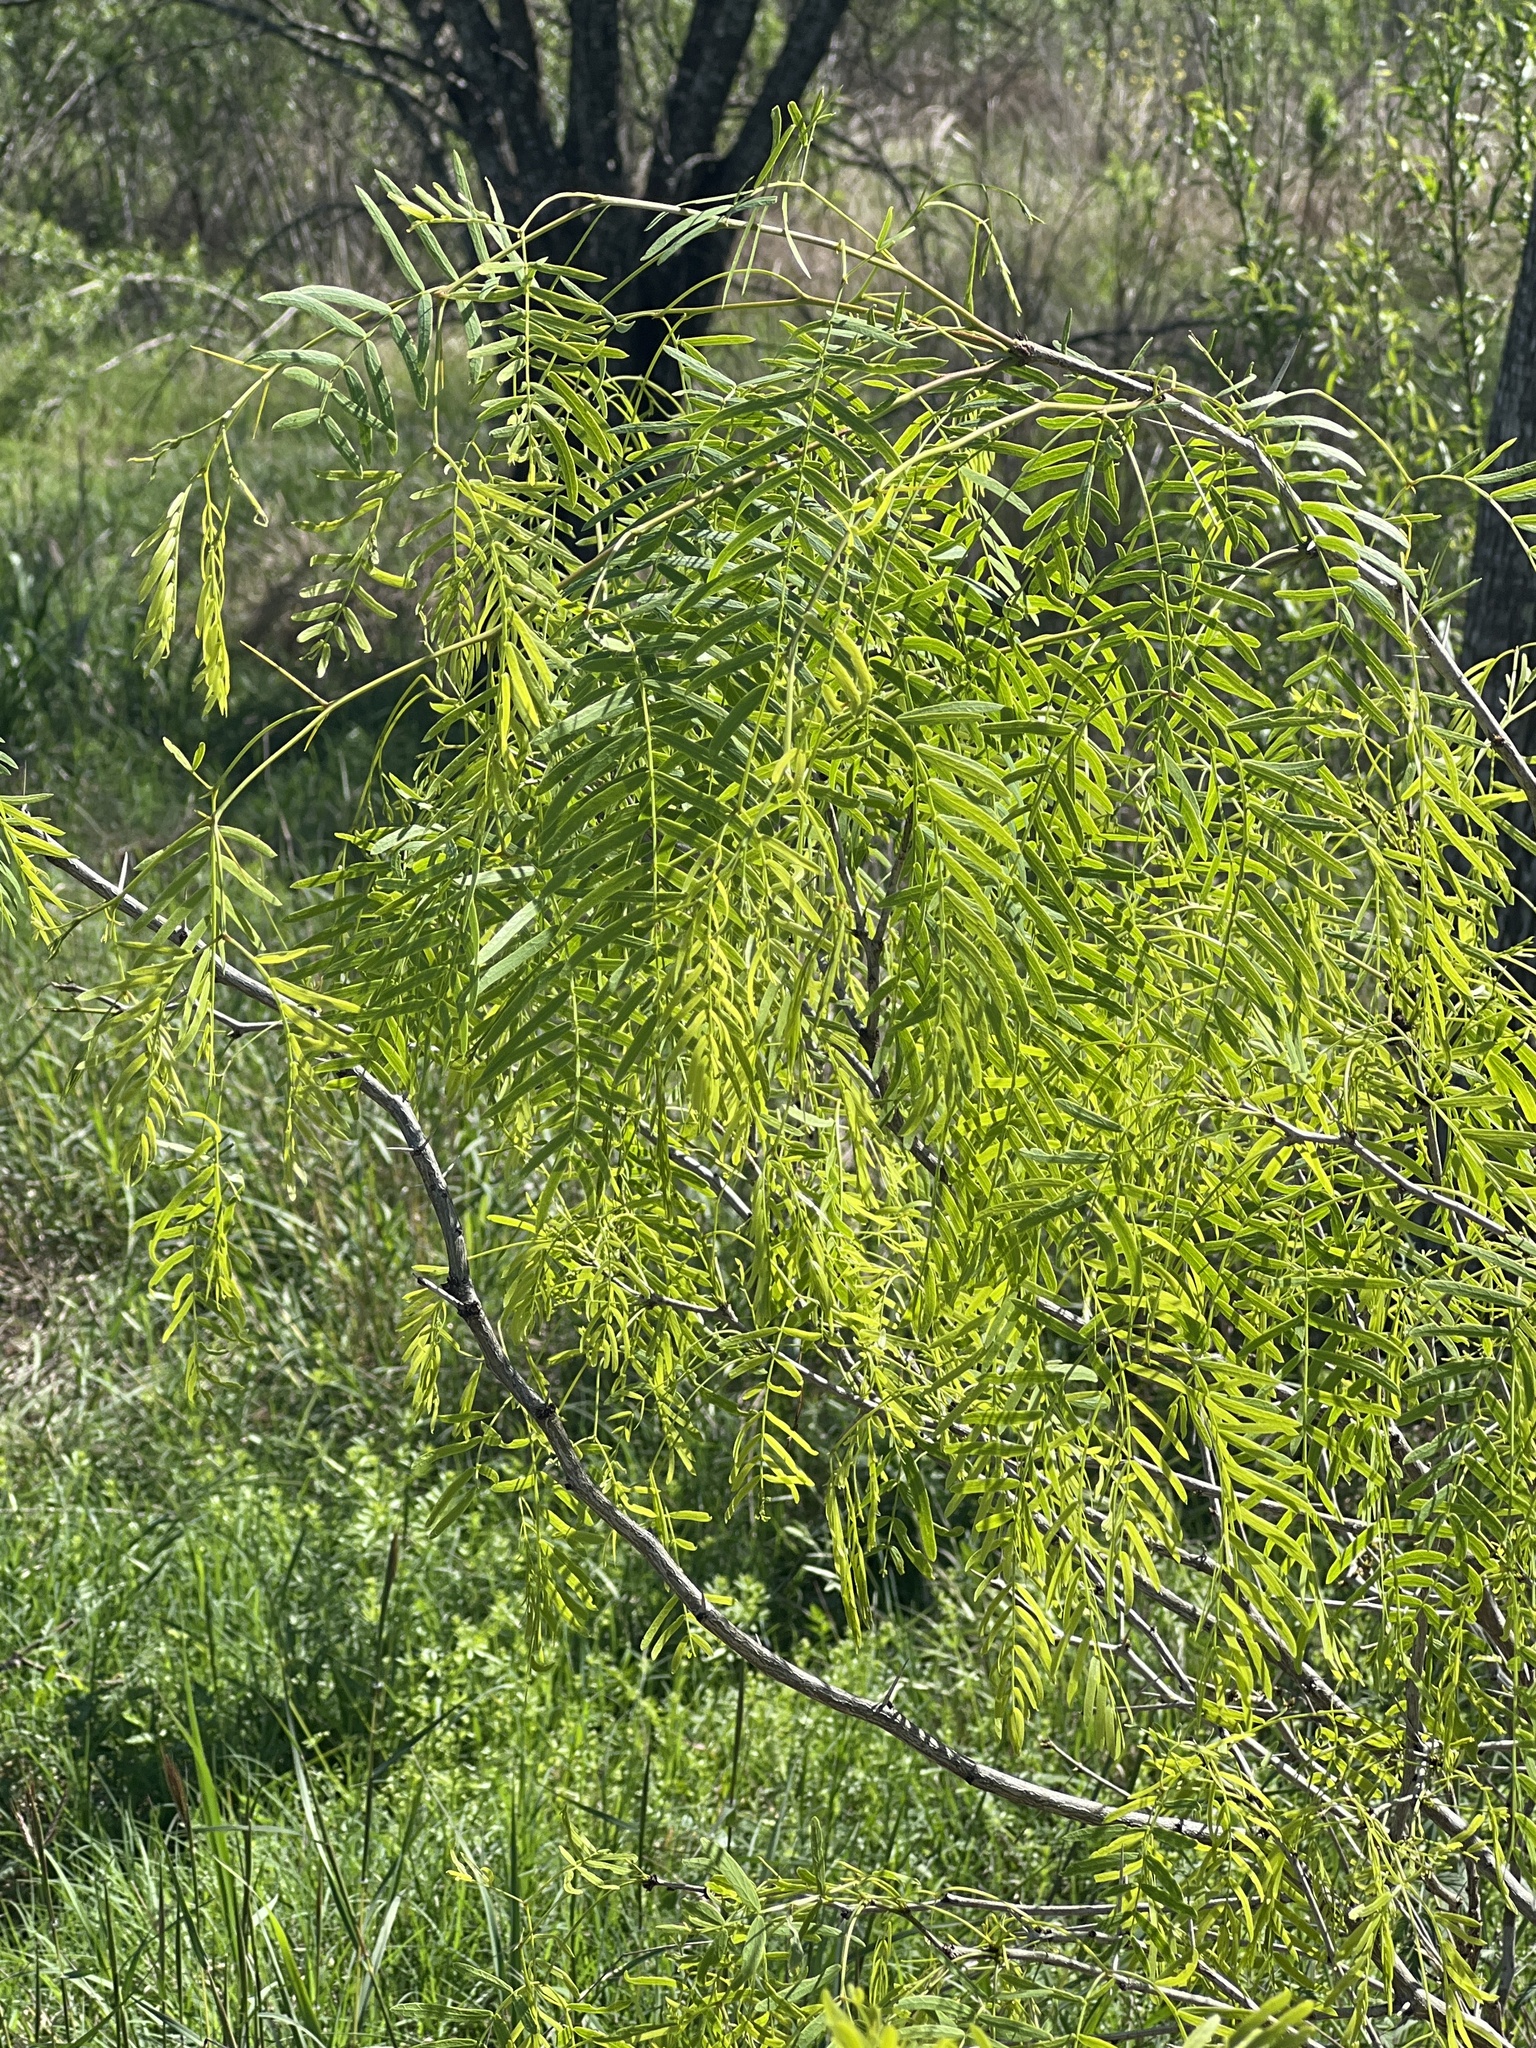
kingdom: Plantae
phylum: Tracheophyta
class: Magnoliopsida
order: Fabales
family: Fabaceae
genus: Prosopis
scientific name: Prosopis glandulosa
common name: Honey mesquite
